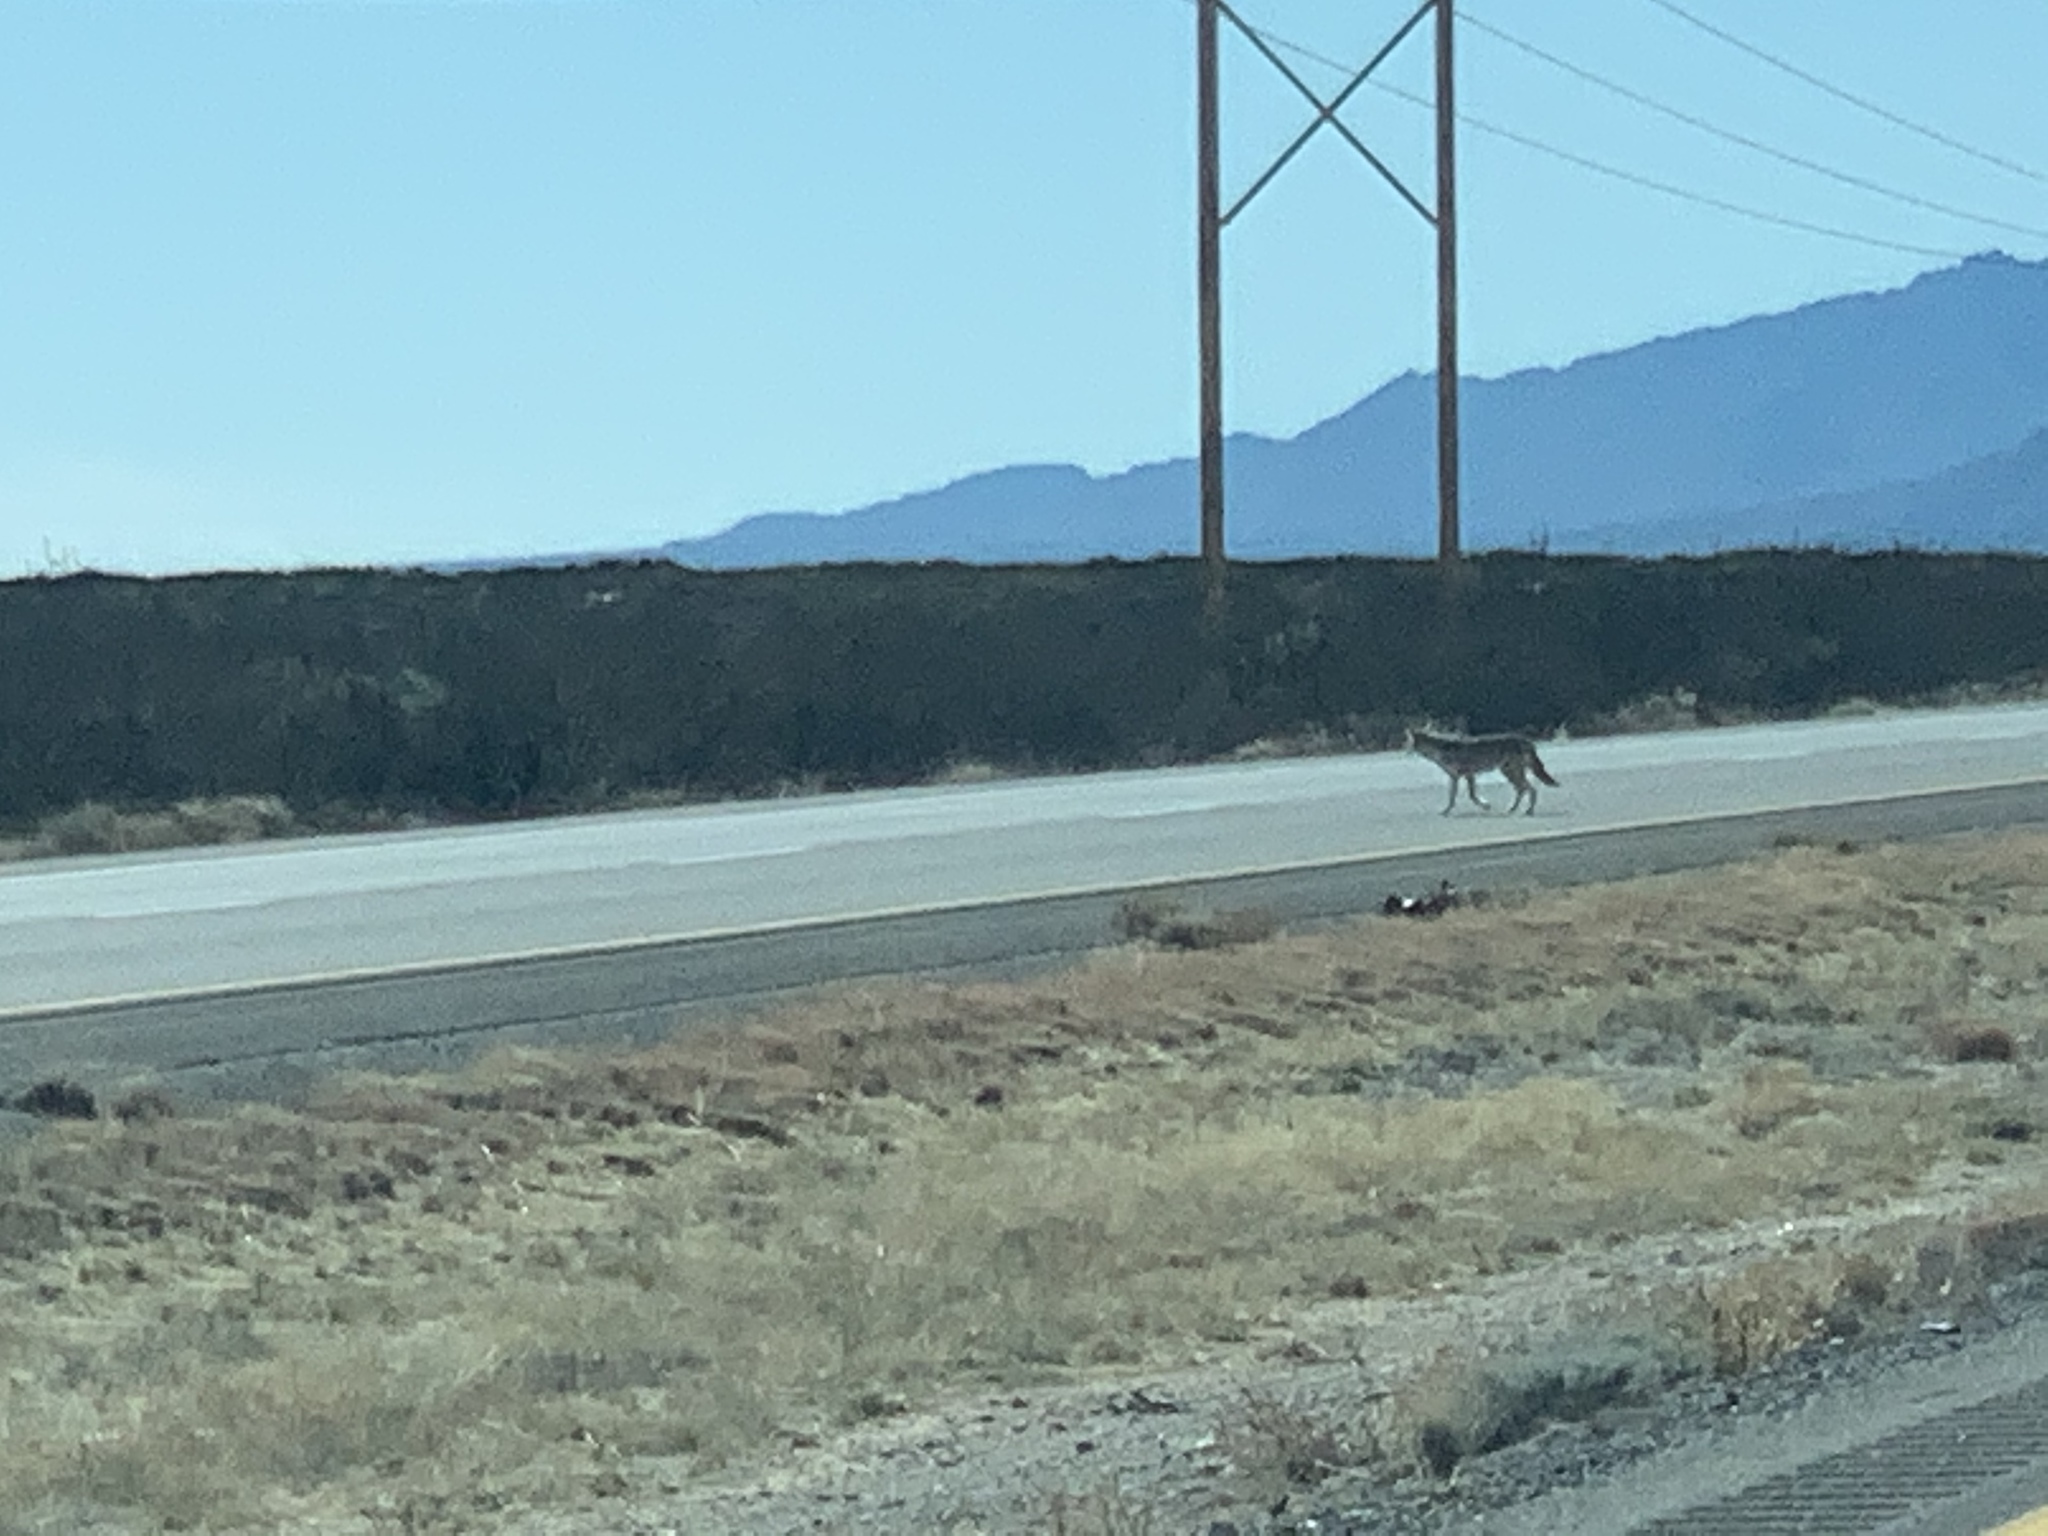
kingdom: Animalia
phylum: Chordata
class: Mammalia
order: Carnivora
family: Canidae
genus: Canis
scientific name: Canis latrans
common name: Coyote
